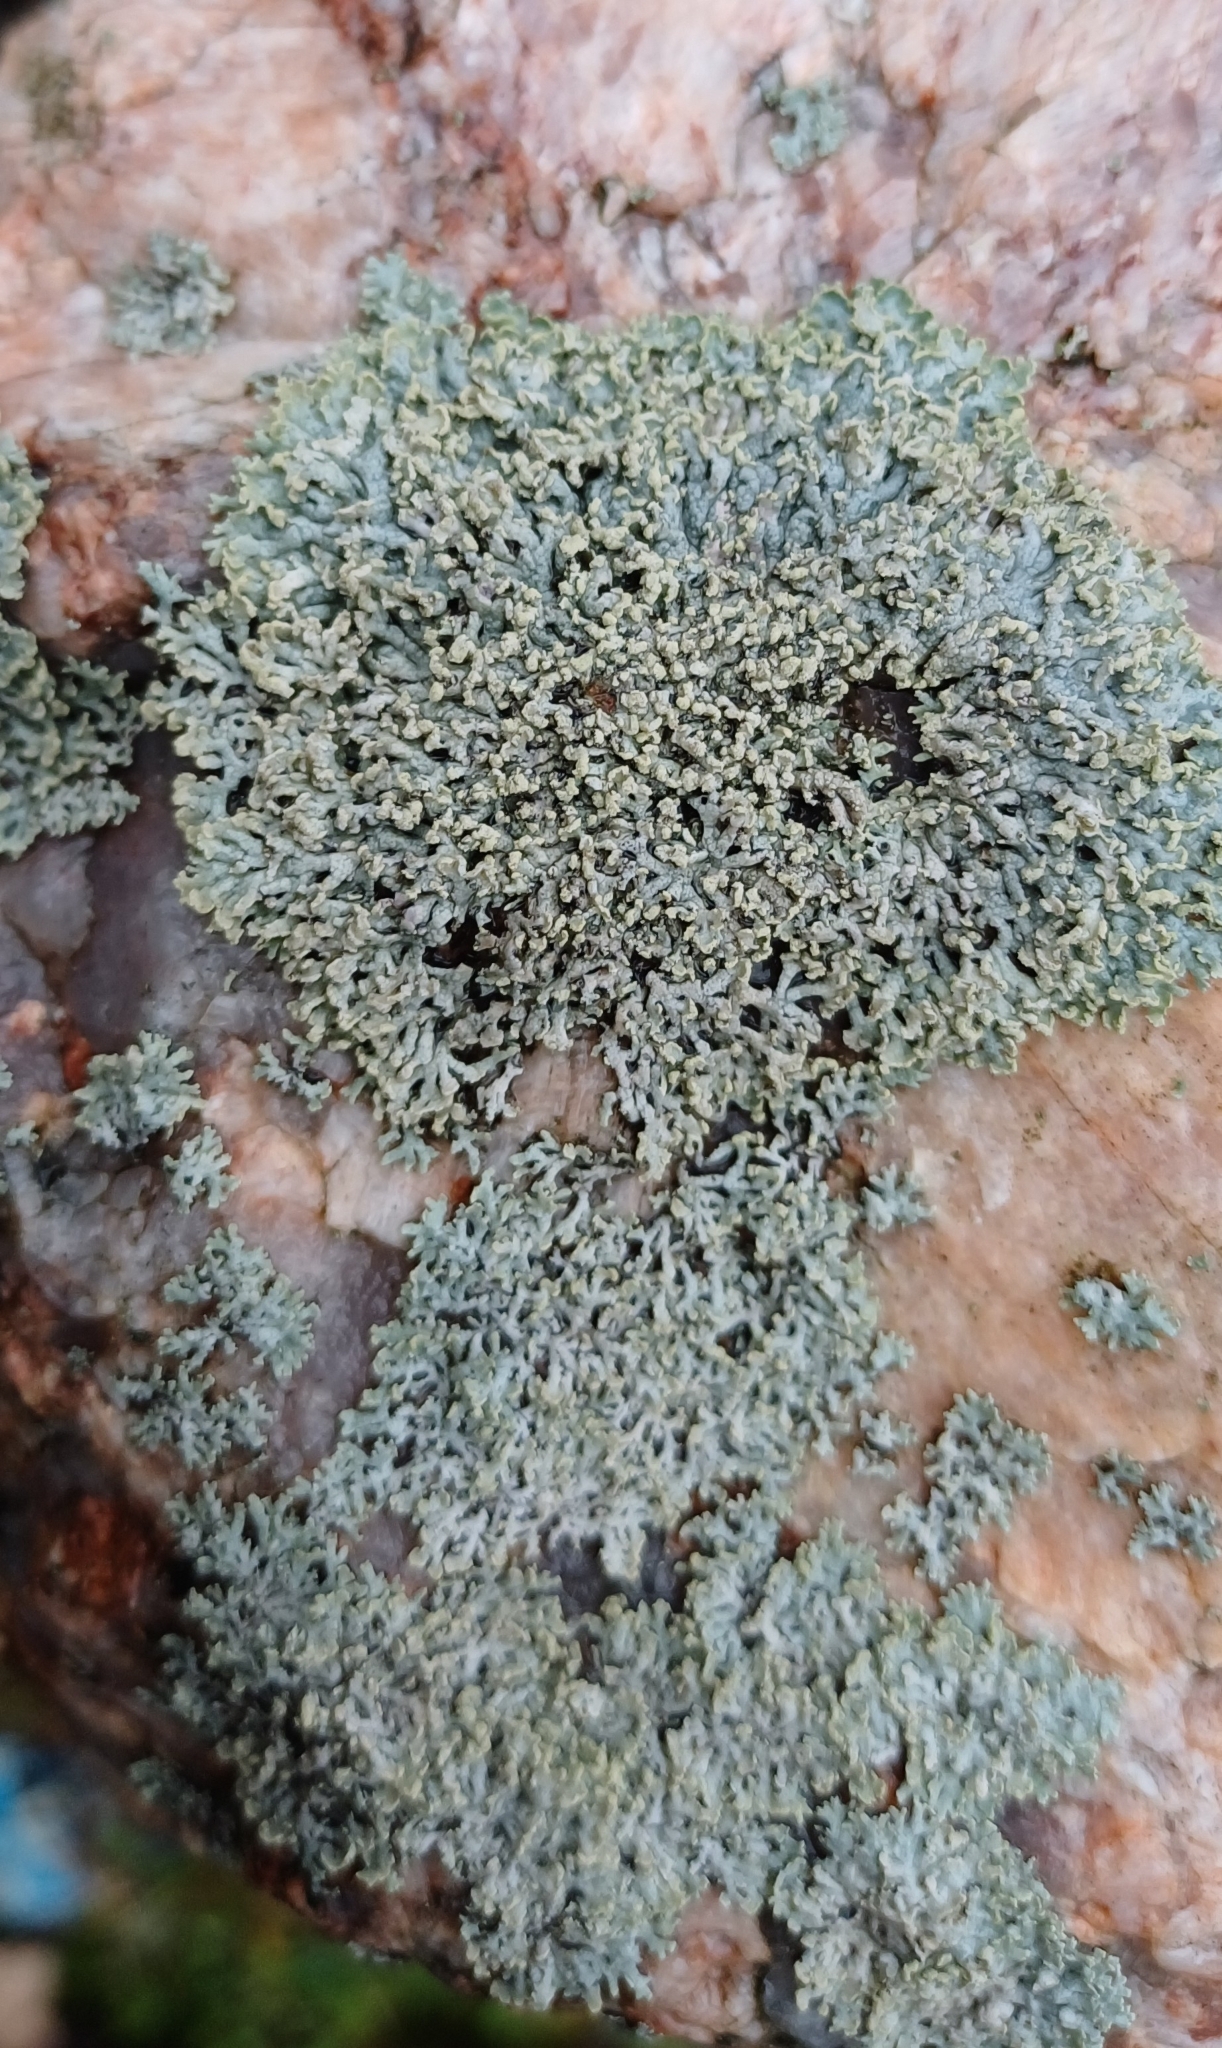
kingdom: Fungi
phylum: Ascomycota
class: Lecanoromycetes
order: Caliciales
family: Physciaceae
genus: Physcia
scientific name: Physcia dubia
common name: Powder-tipped rosette lichen
